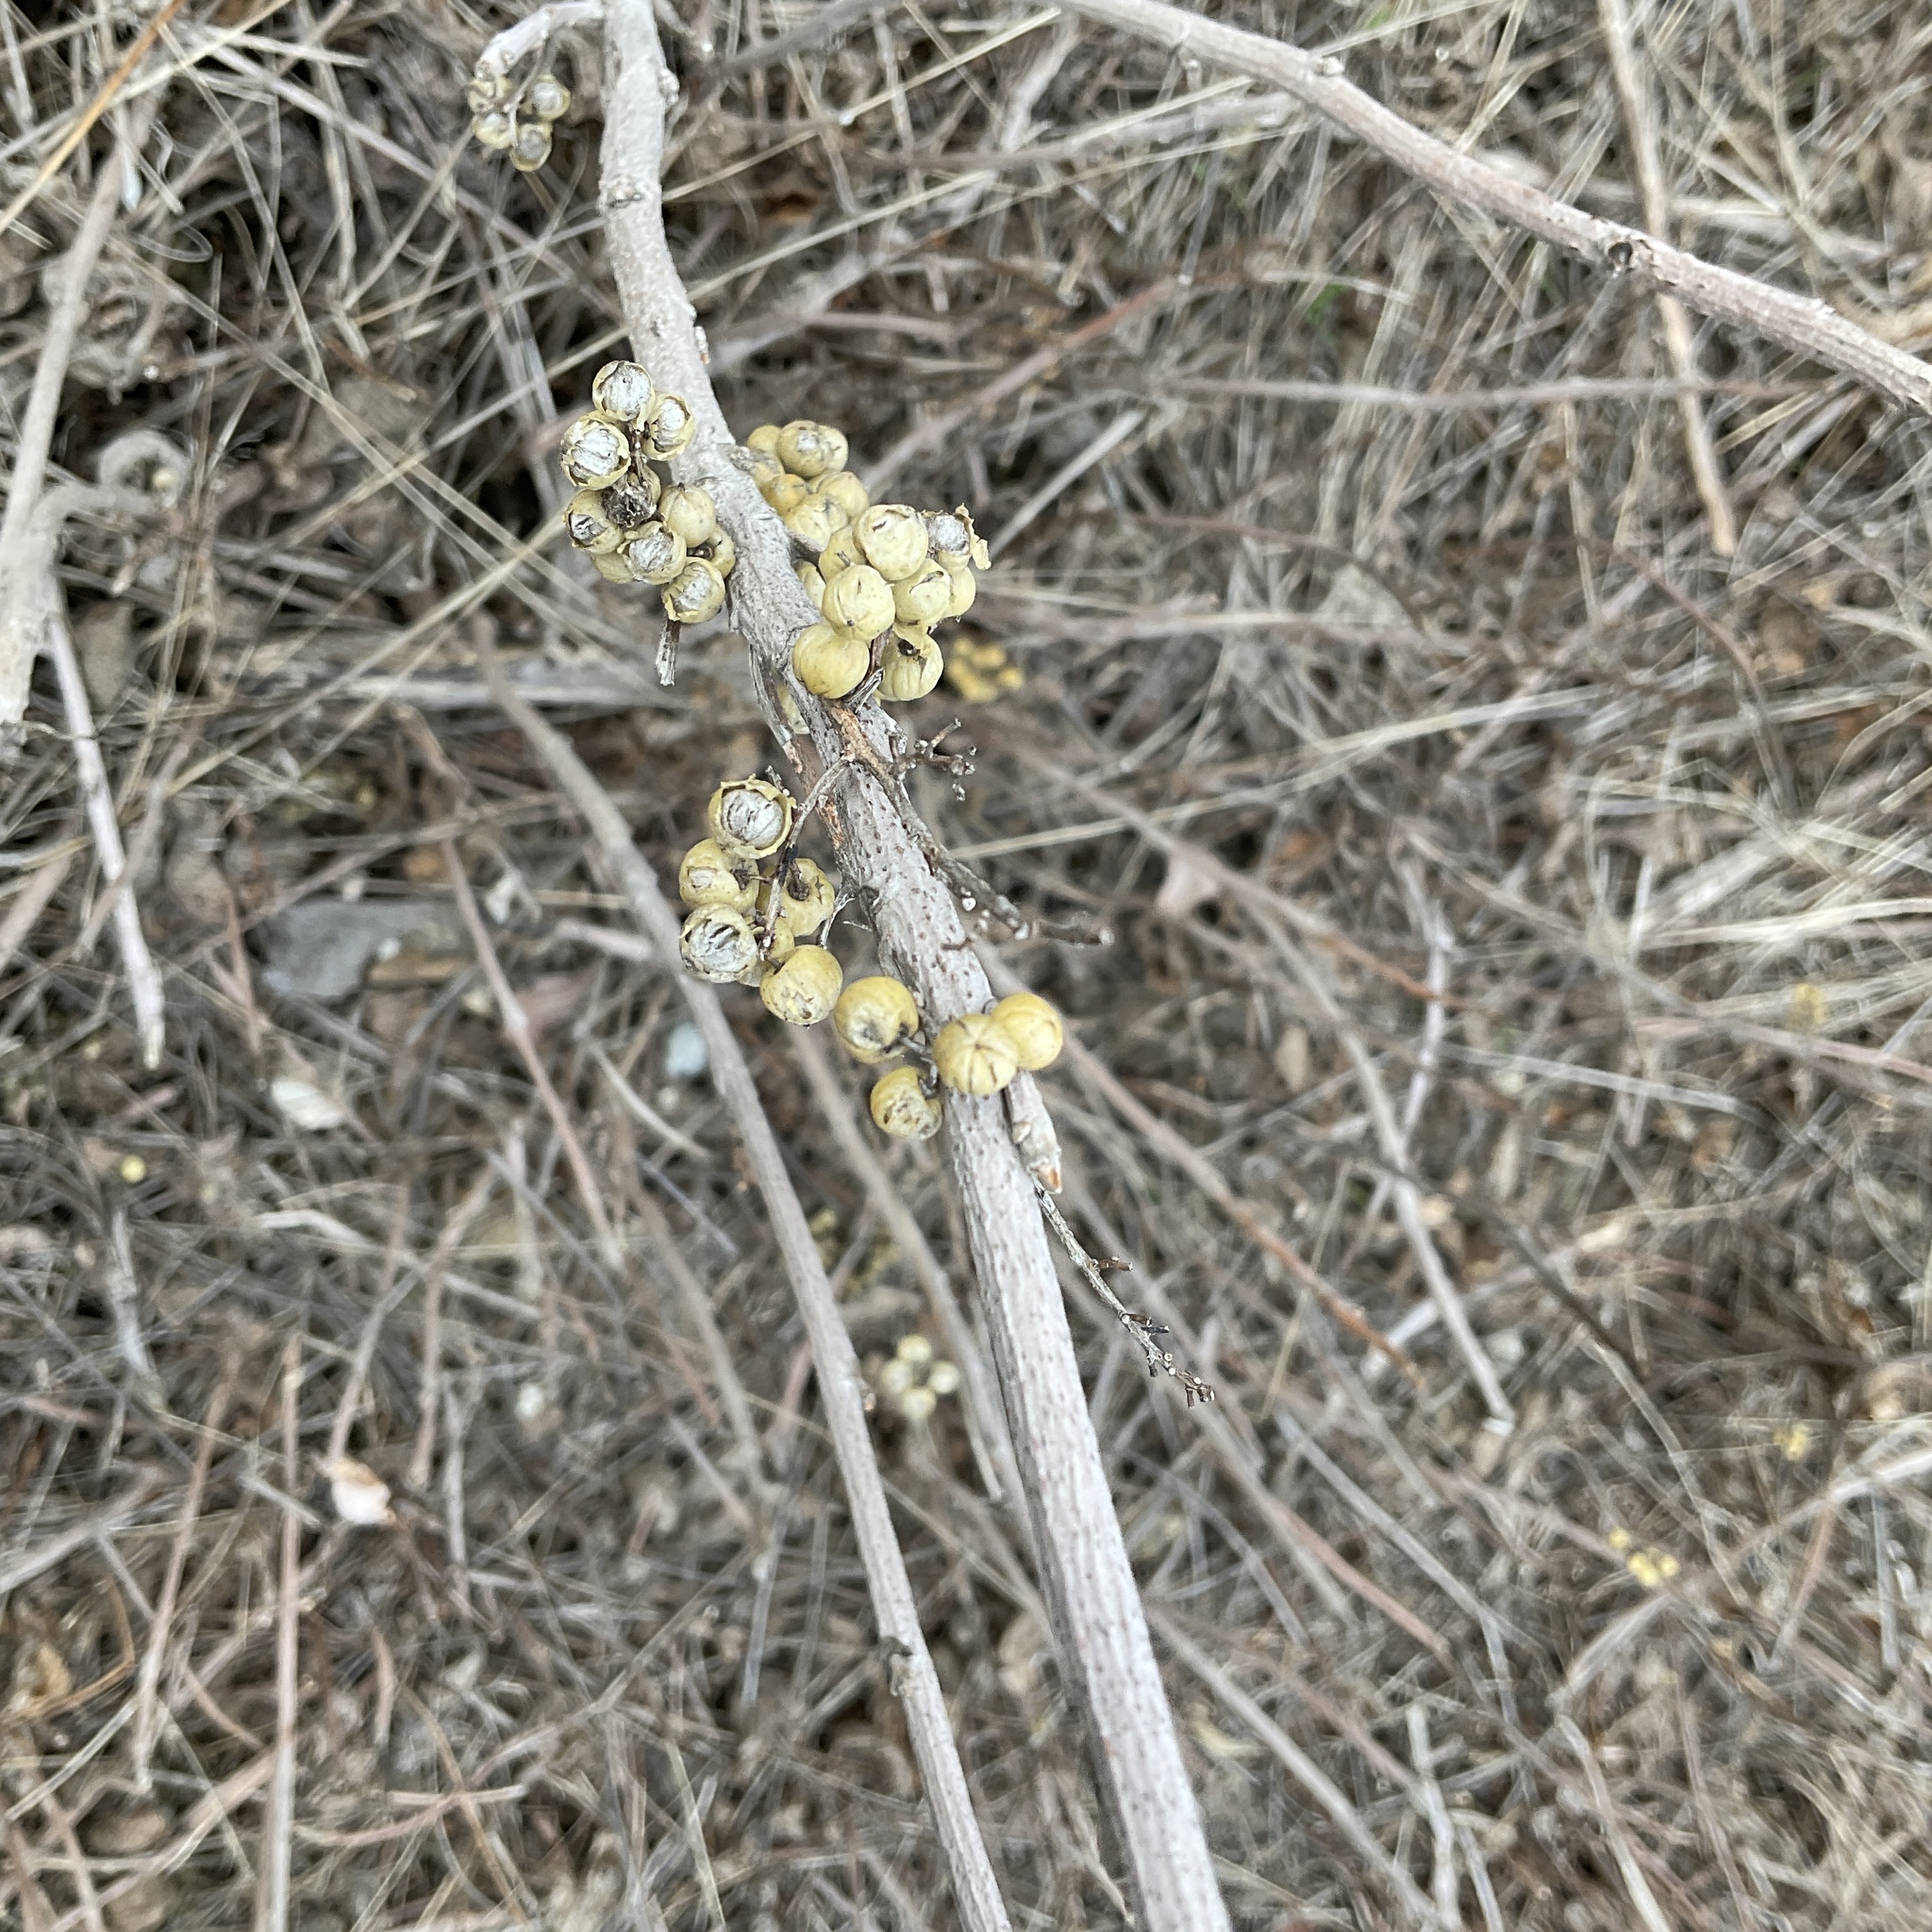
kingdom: Plantae
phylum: Tracheophyta
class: Magnoliopsida
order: Sapindales
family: Anacardiaceae
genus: Toxicodendron
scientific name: Toxicodendron rydbergii
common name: Rydberg's poison-ivy
